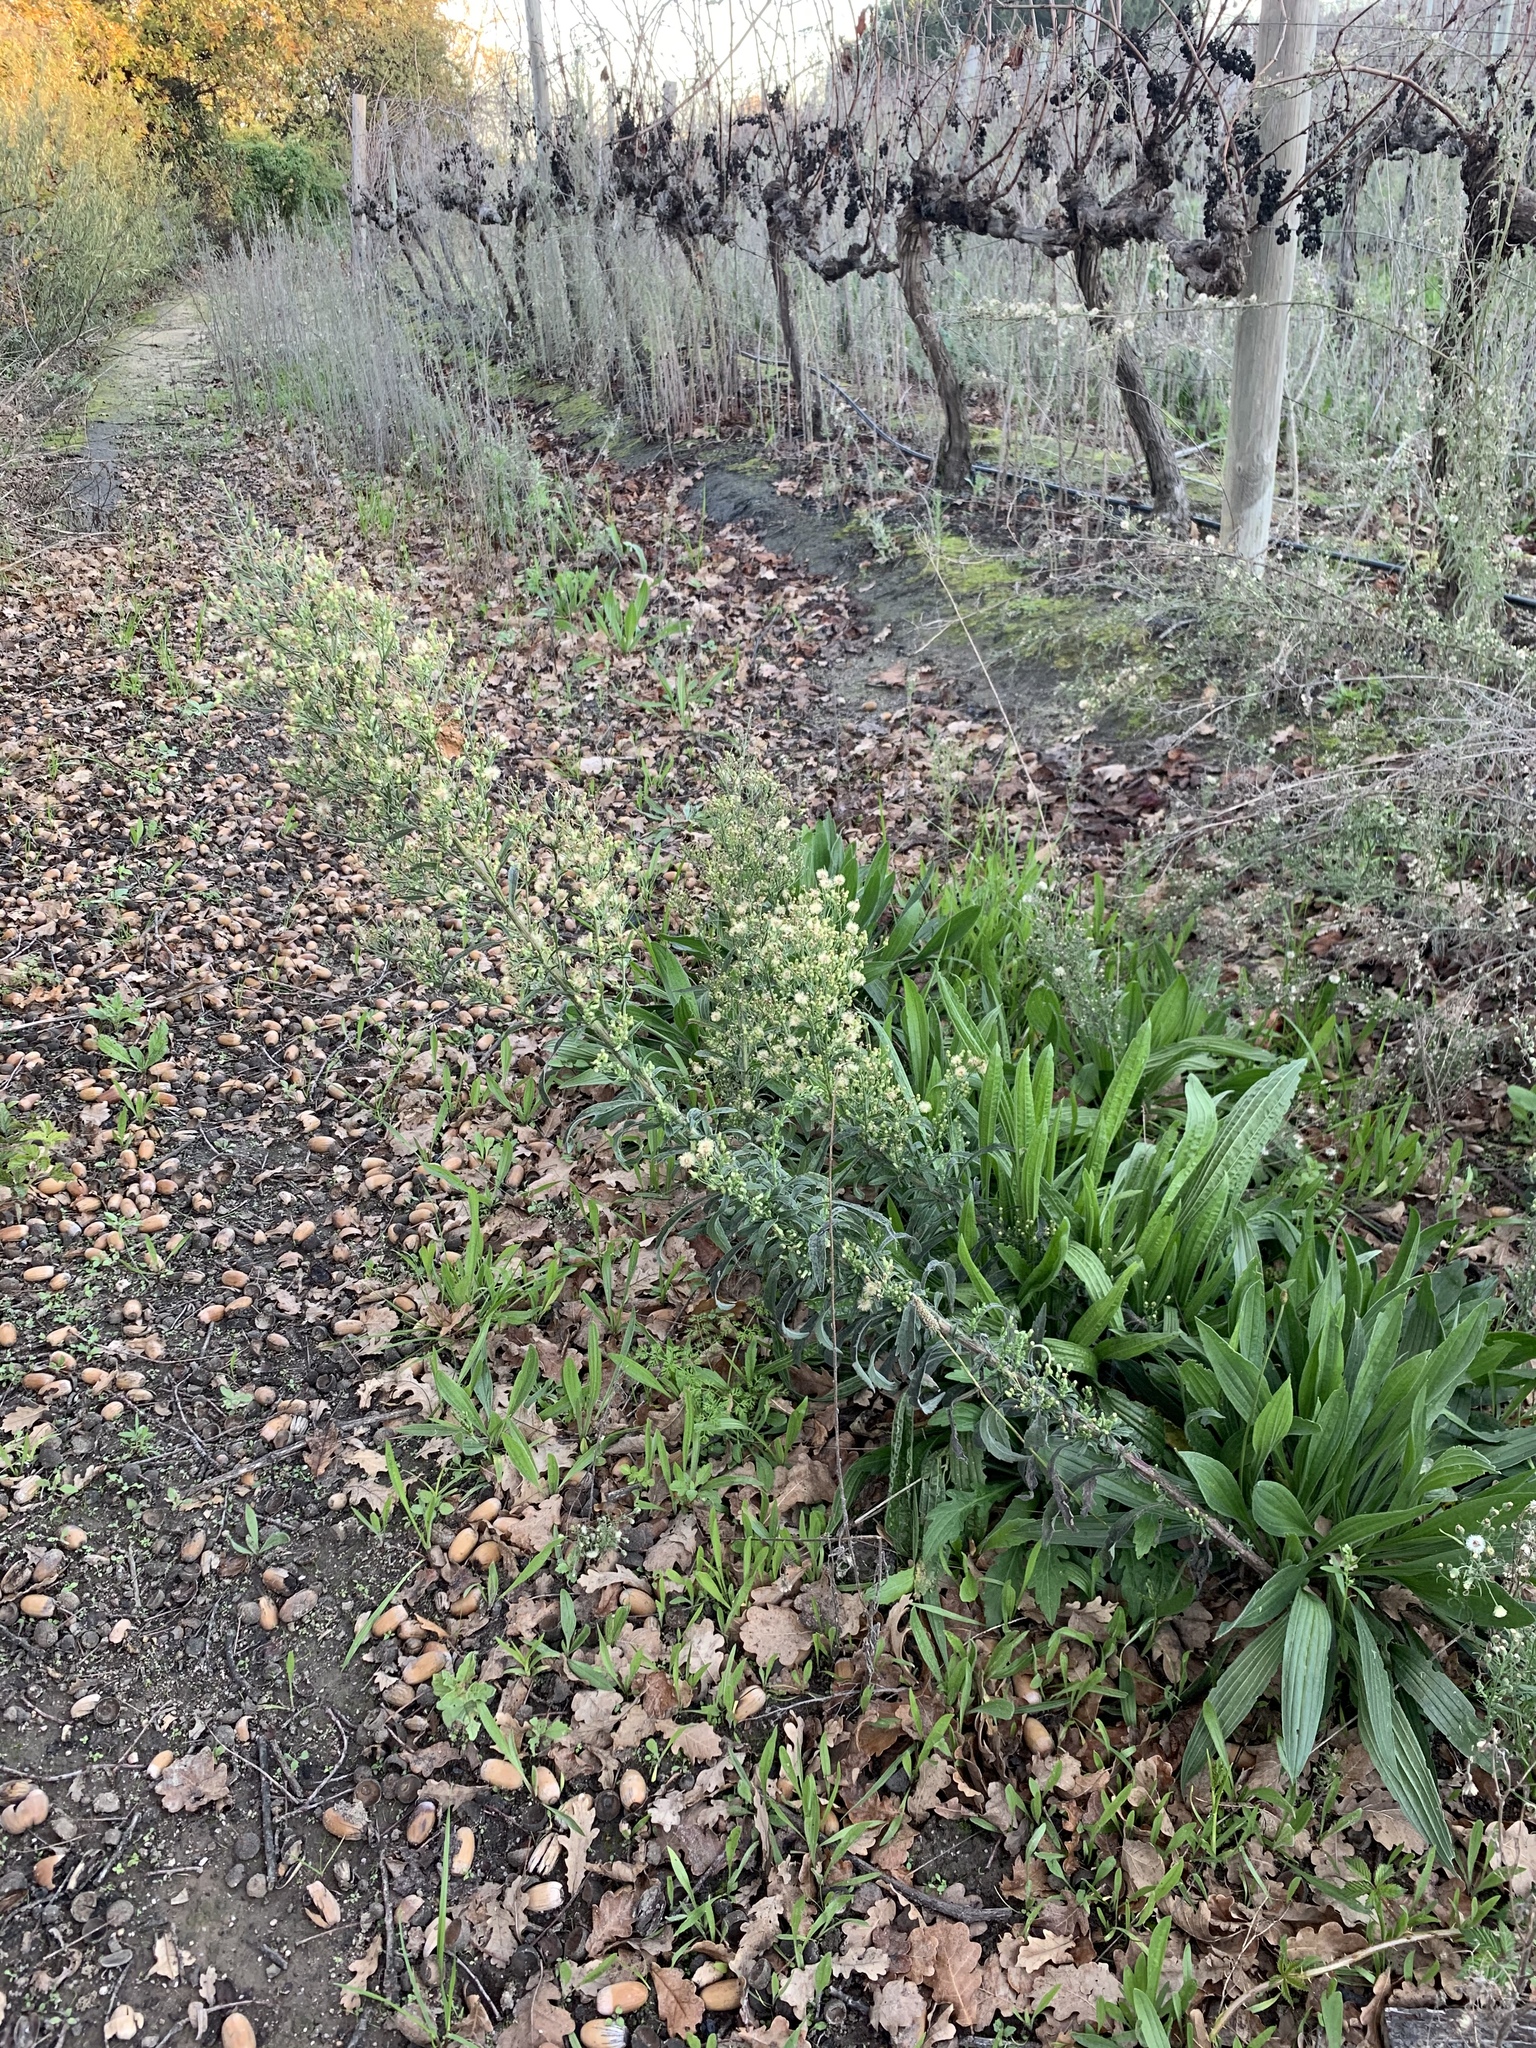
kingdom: Plantae
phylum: Tracheophyta
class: Magnoliopsida
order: Asterales
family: Asteraceae
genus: Erigeron
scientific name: Erigeron sumatrensis
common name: Daisy
